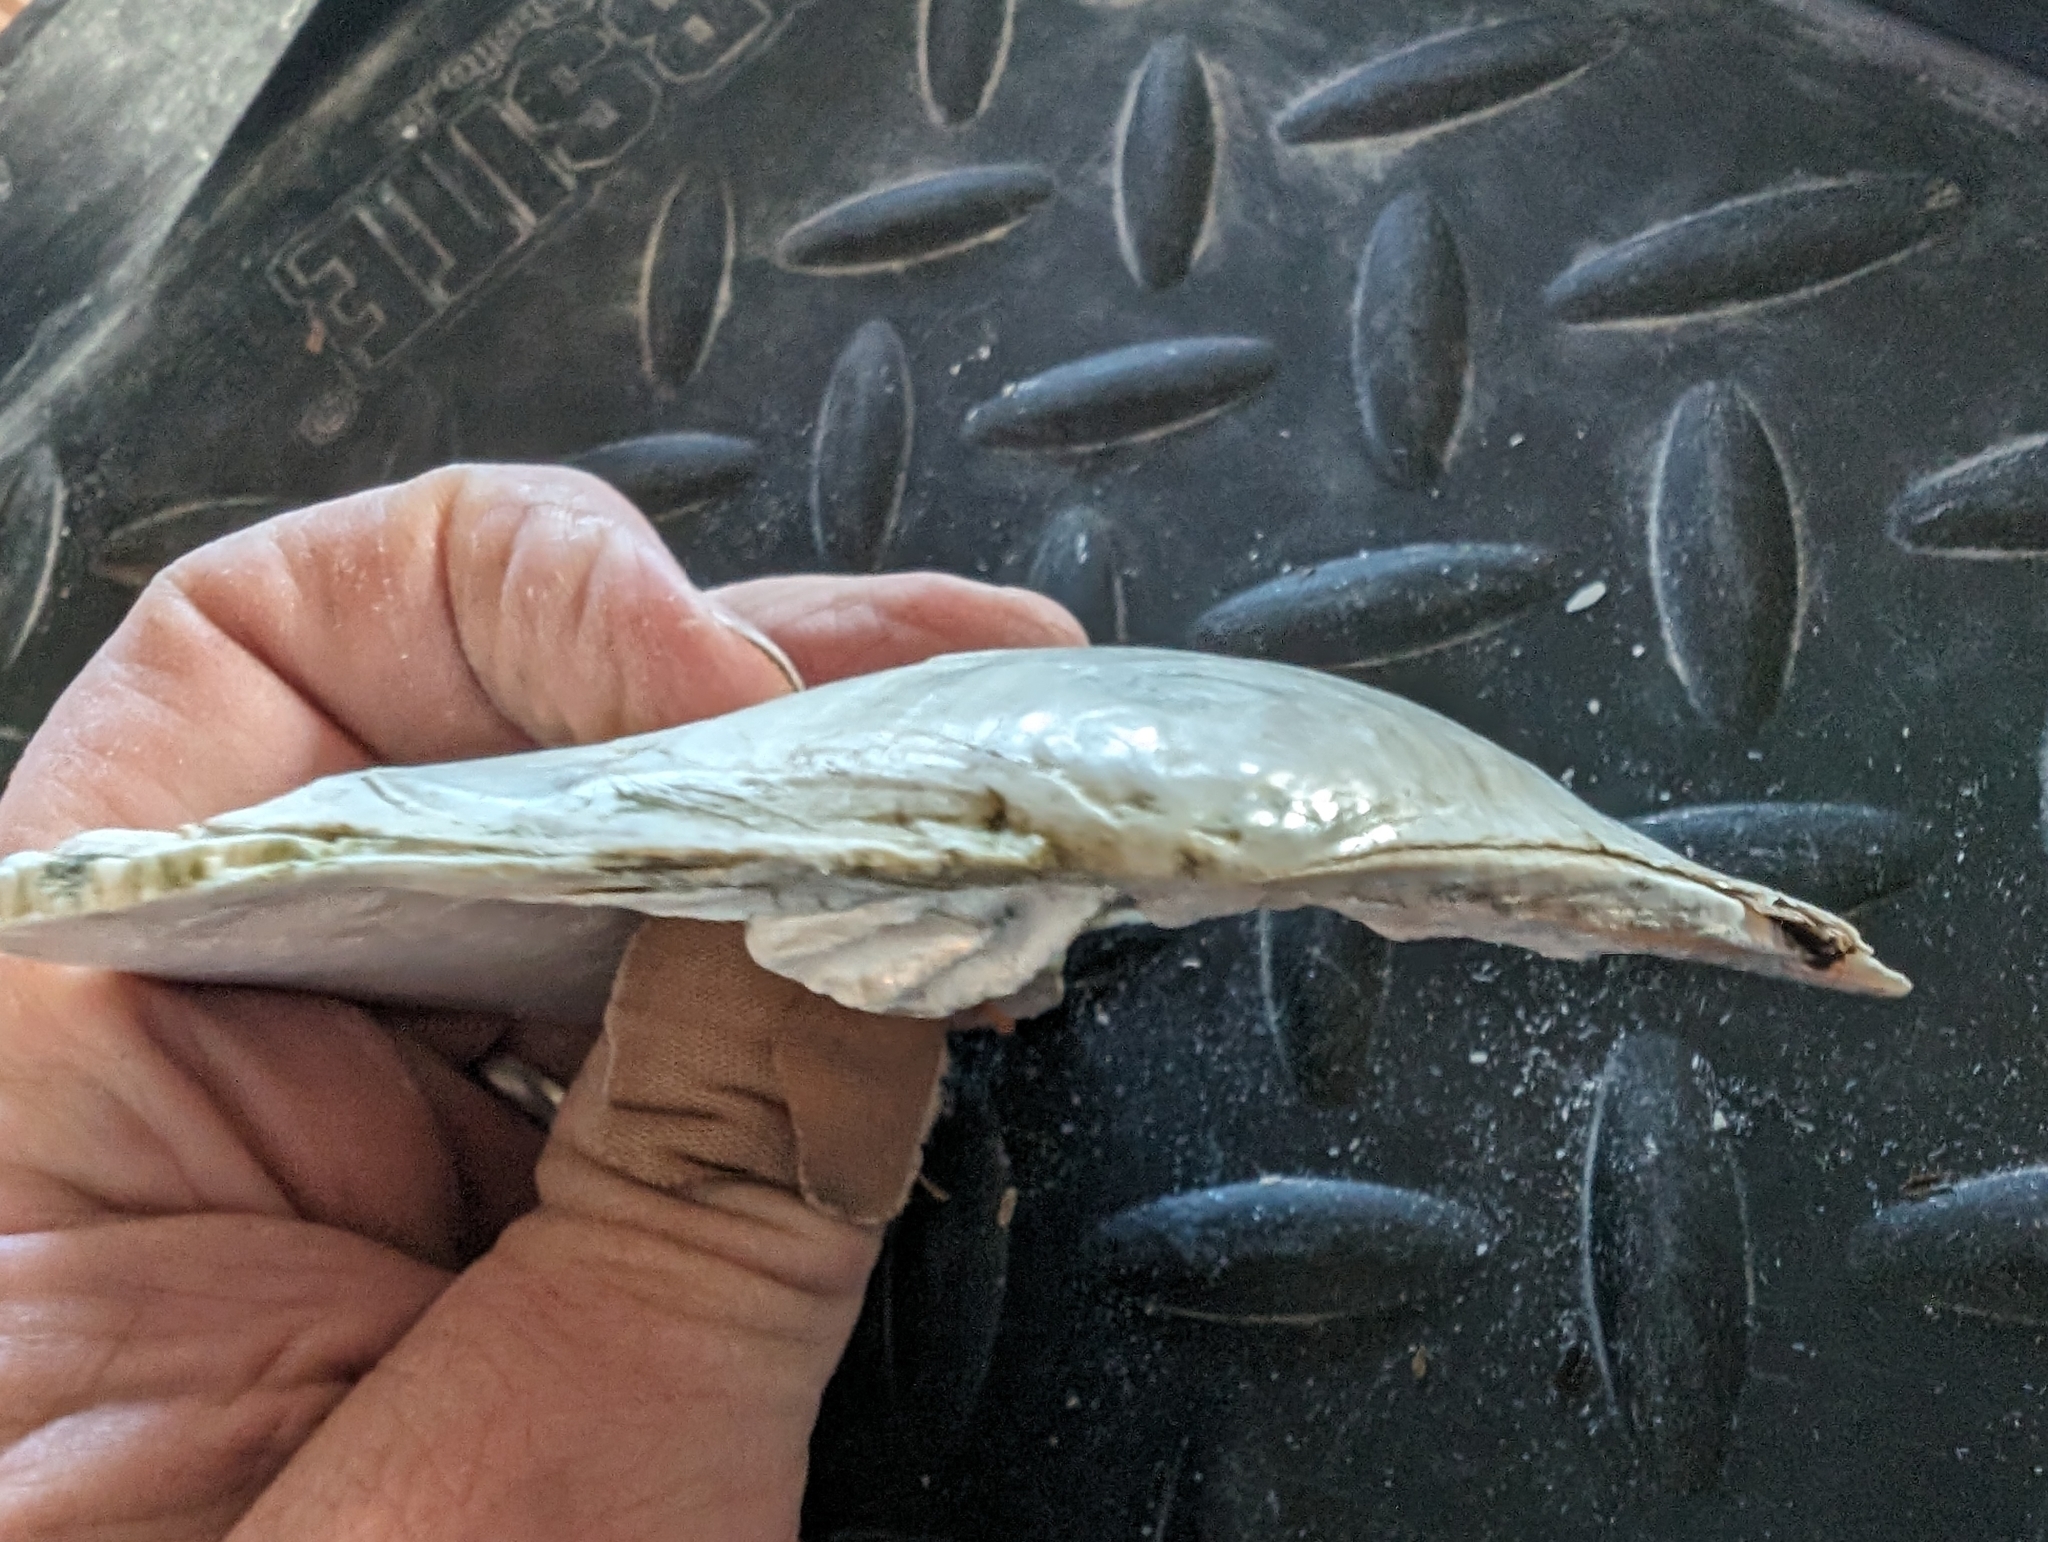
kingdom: Animalia
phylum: Mollusca
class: Bivalvia
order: Unionida
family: Unionidae
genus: Lasmigona
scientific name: Lasmigona complanata
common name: White heelsplitter
